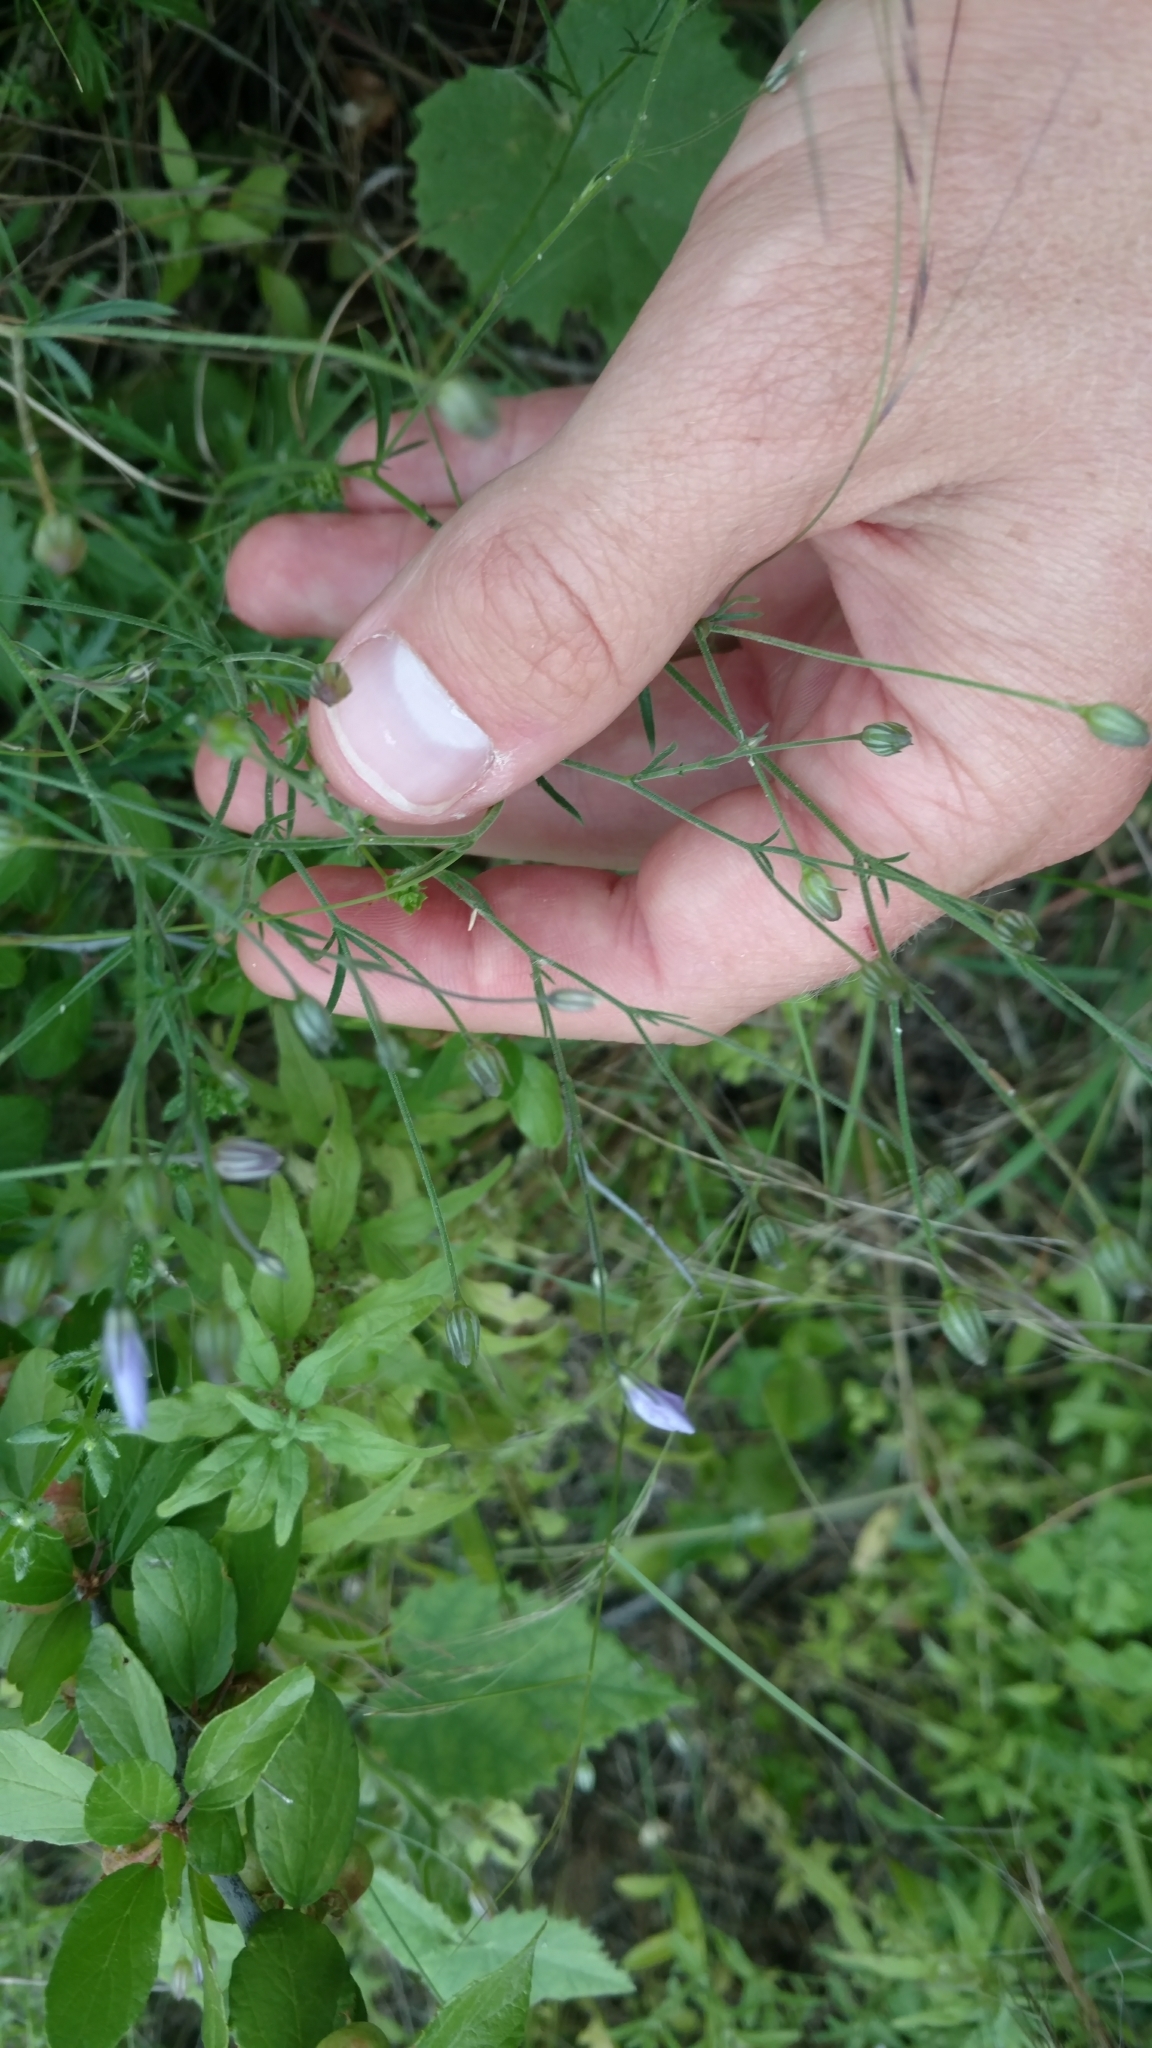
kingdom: Plantae
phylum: Tracheophyta
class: Magnoliopsida
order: Ericales
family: Polemoniaceae
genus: Giliastrum
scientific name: Giliastrum incisum
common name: Splitleaf gilia
